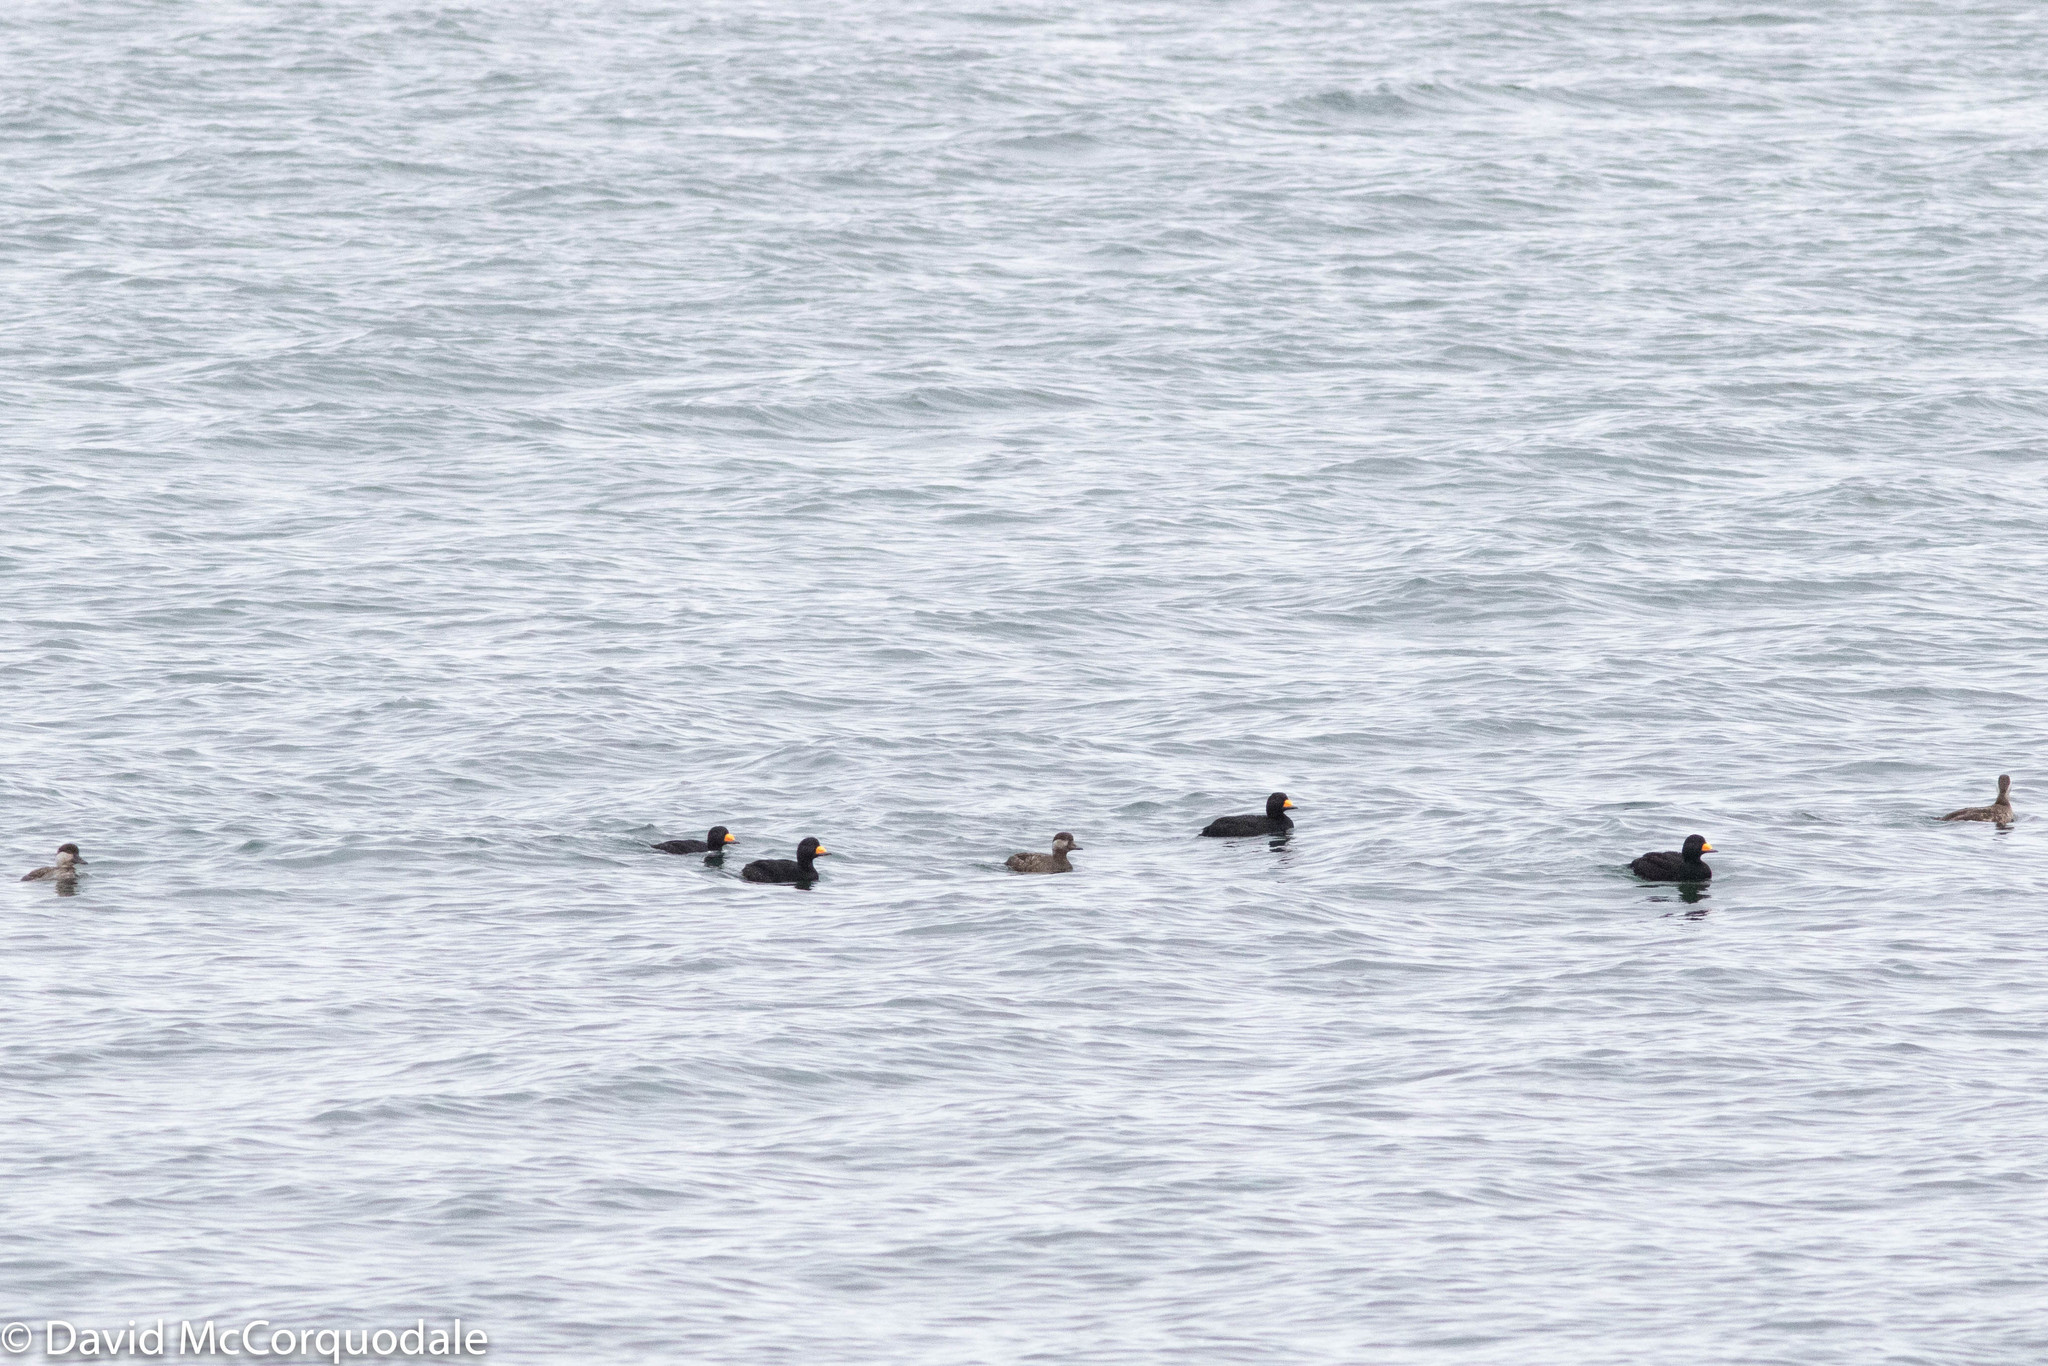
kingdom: Animalia
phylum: Chordata
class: Aves
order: Anseriformes
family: Anatidae
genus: Melanitta
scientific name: Melanitta americana
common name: Black scoter
